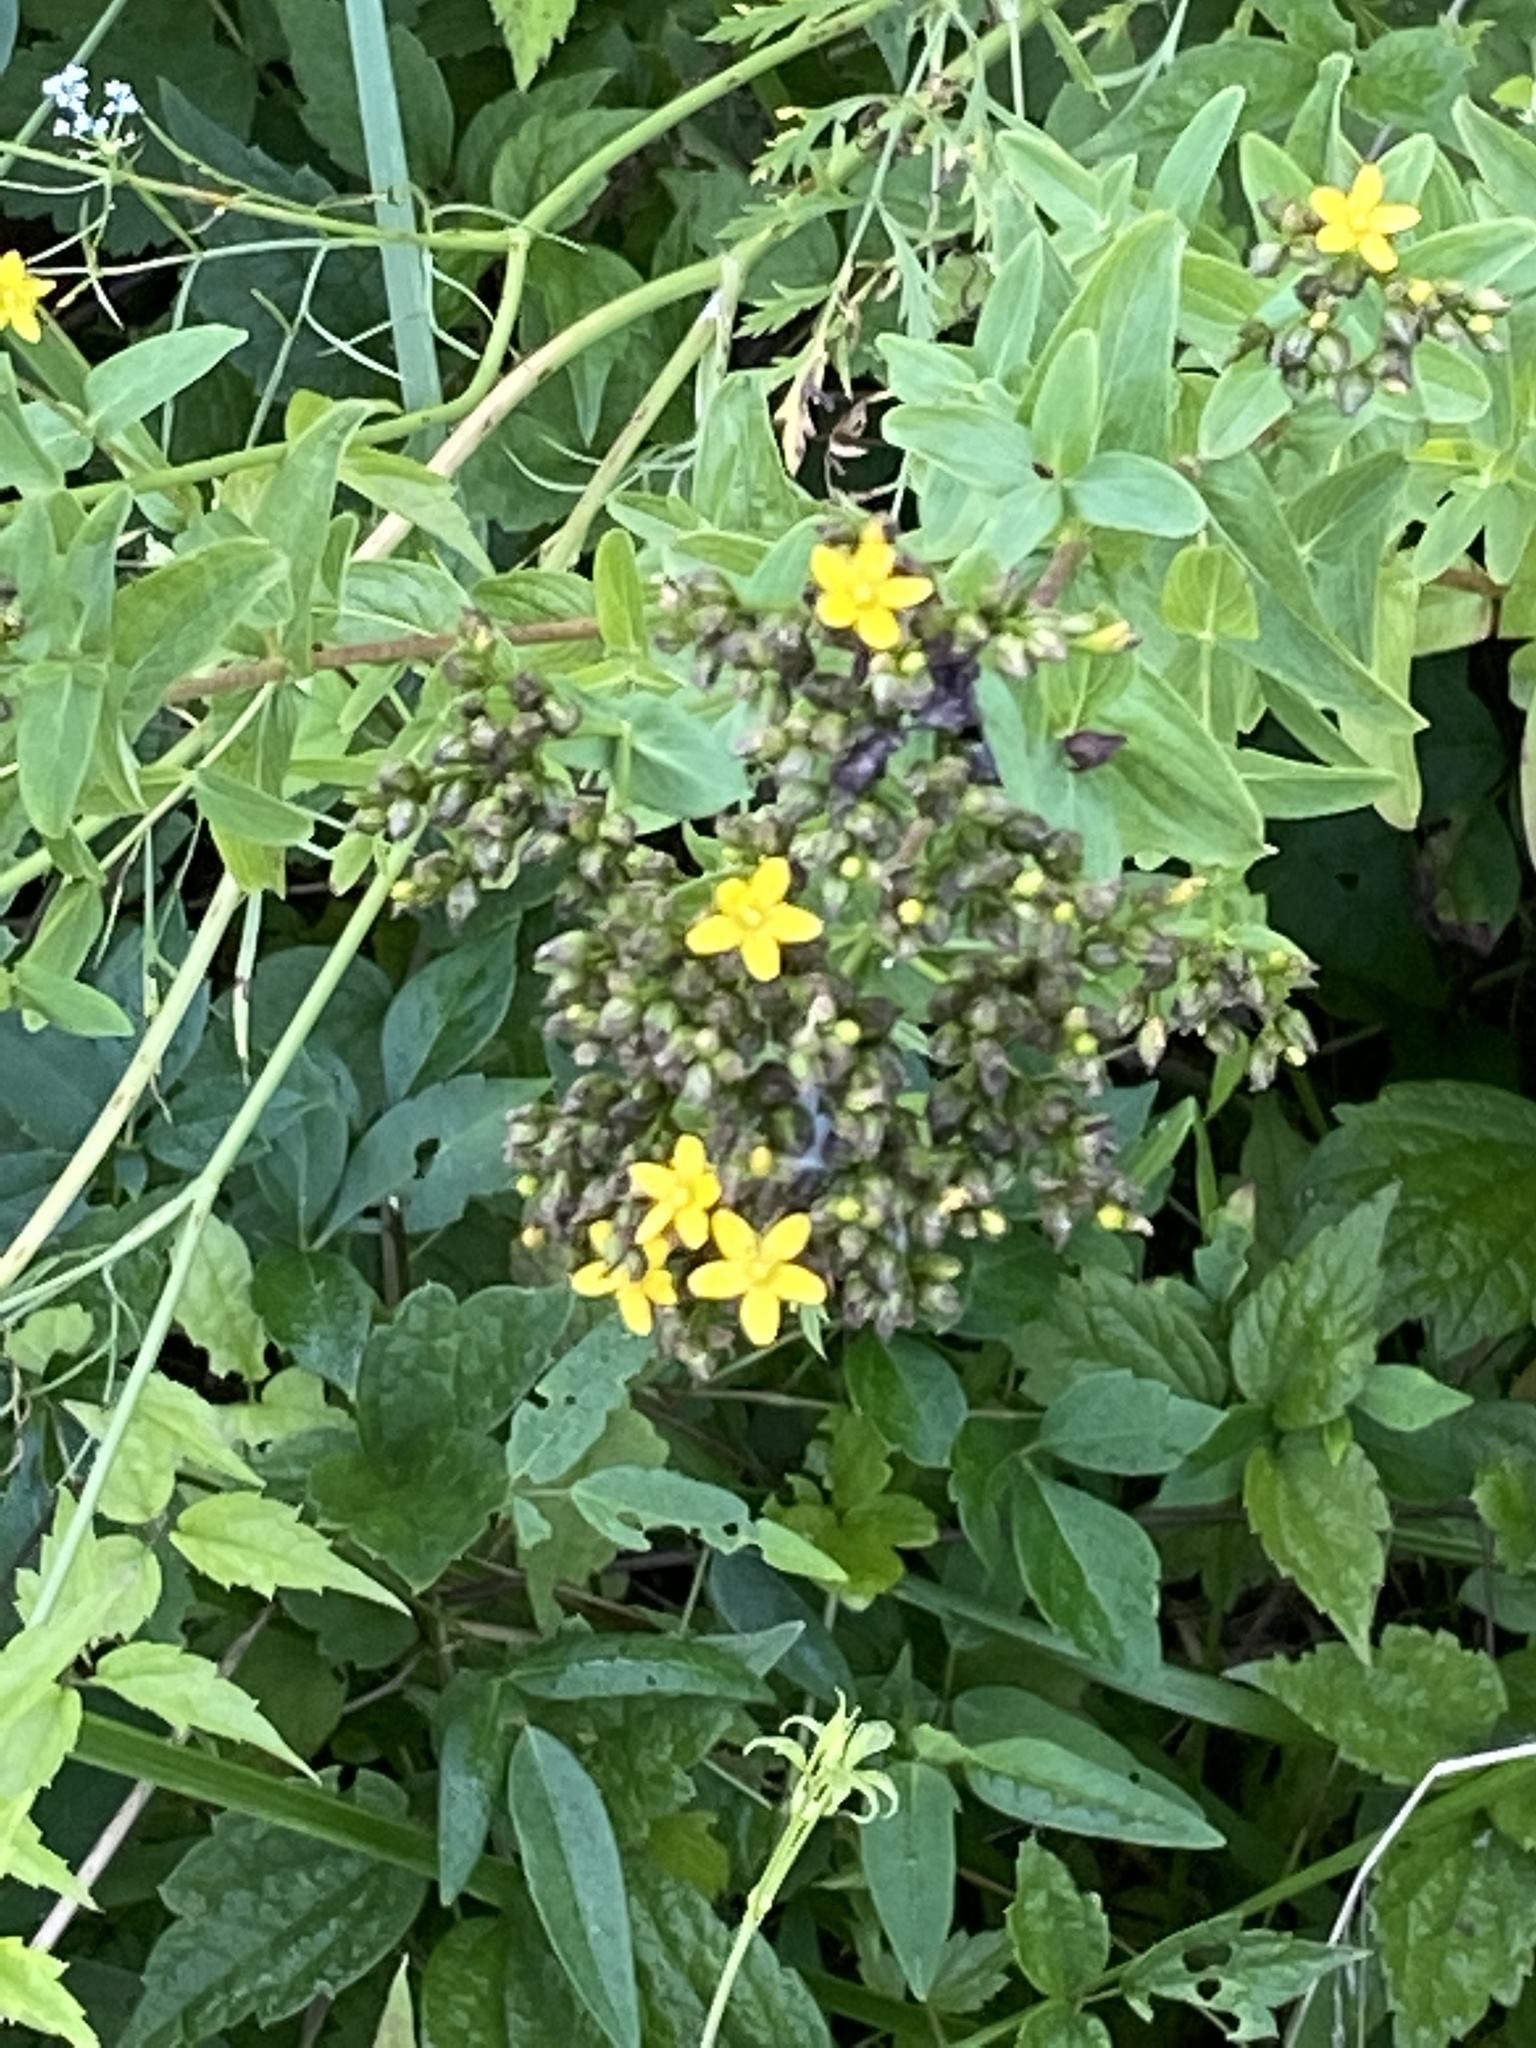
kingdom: Plantae
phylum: Tracheophyta
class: Magnoliopsida
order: Malpighiales
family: Hypericaceae
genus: Hypericum
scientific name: Hypericum punctatum
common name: Spotted st. john's-wort
